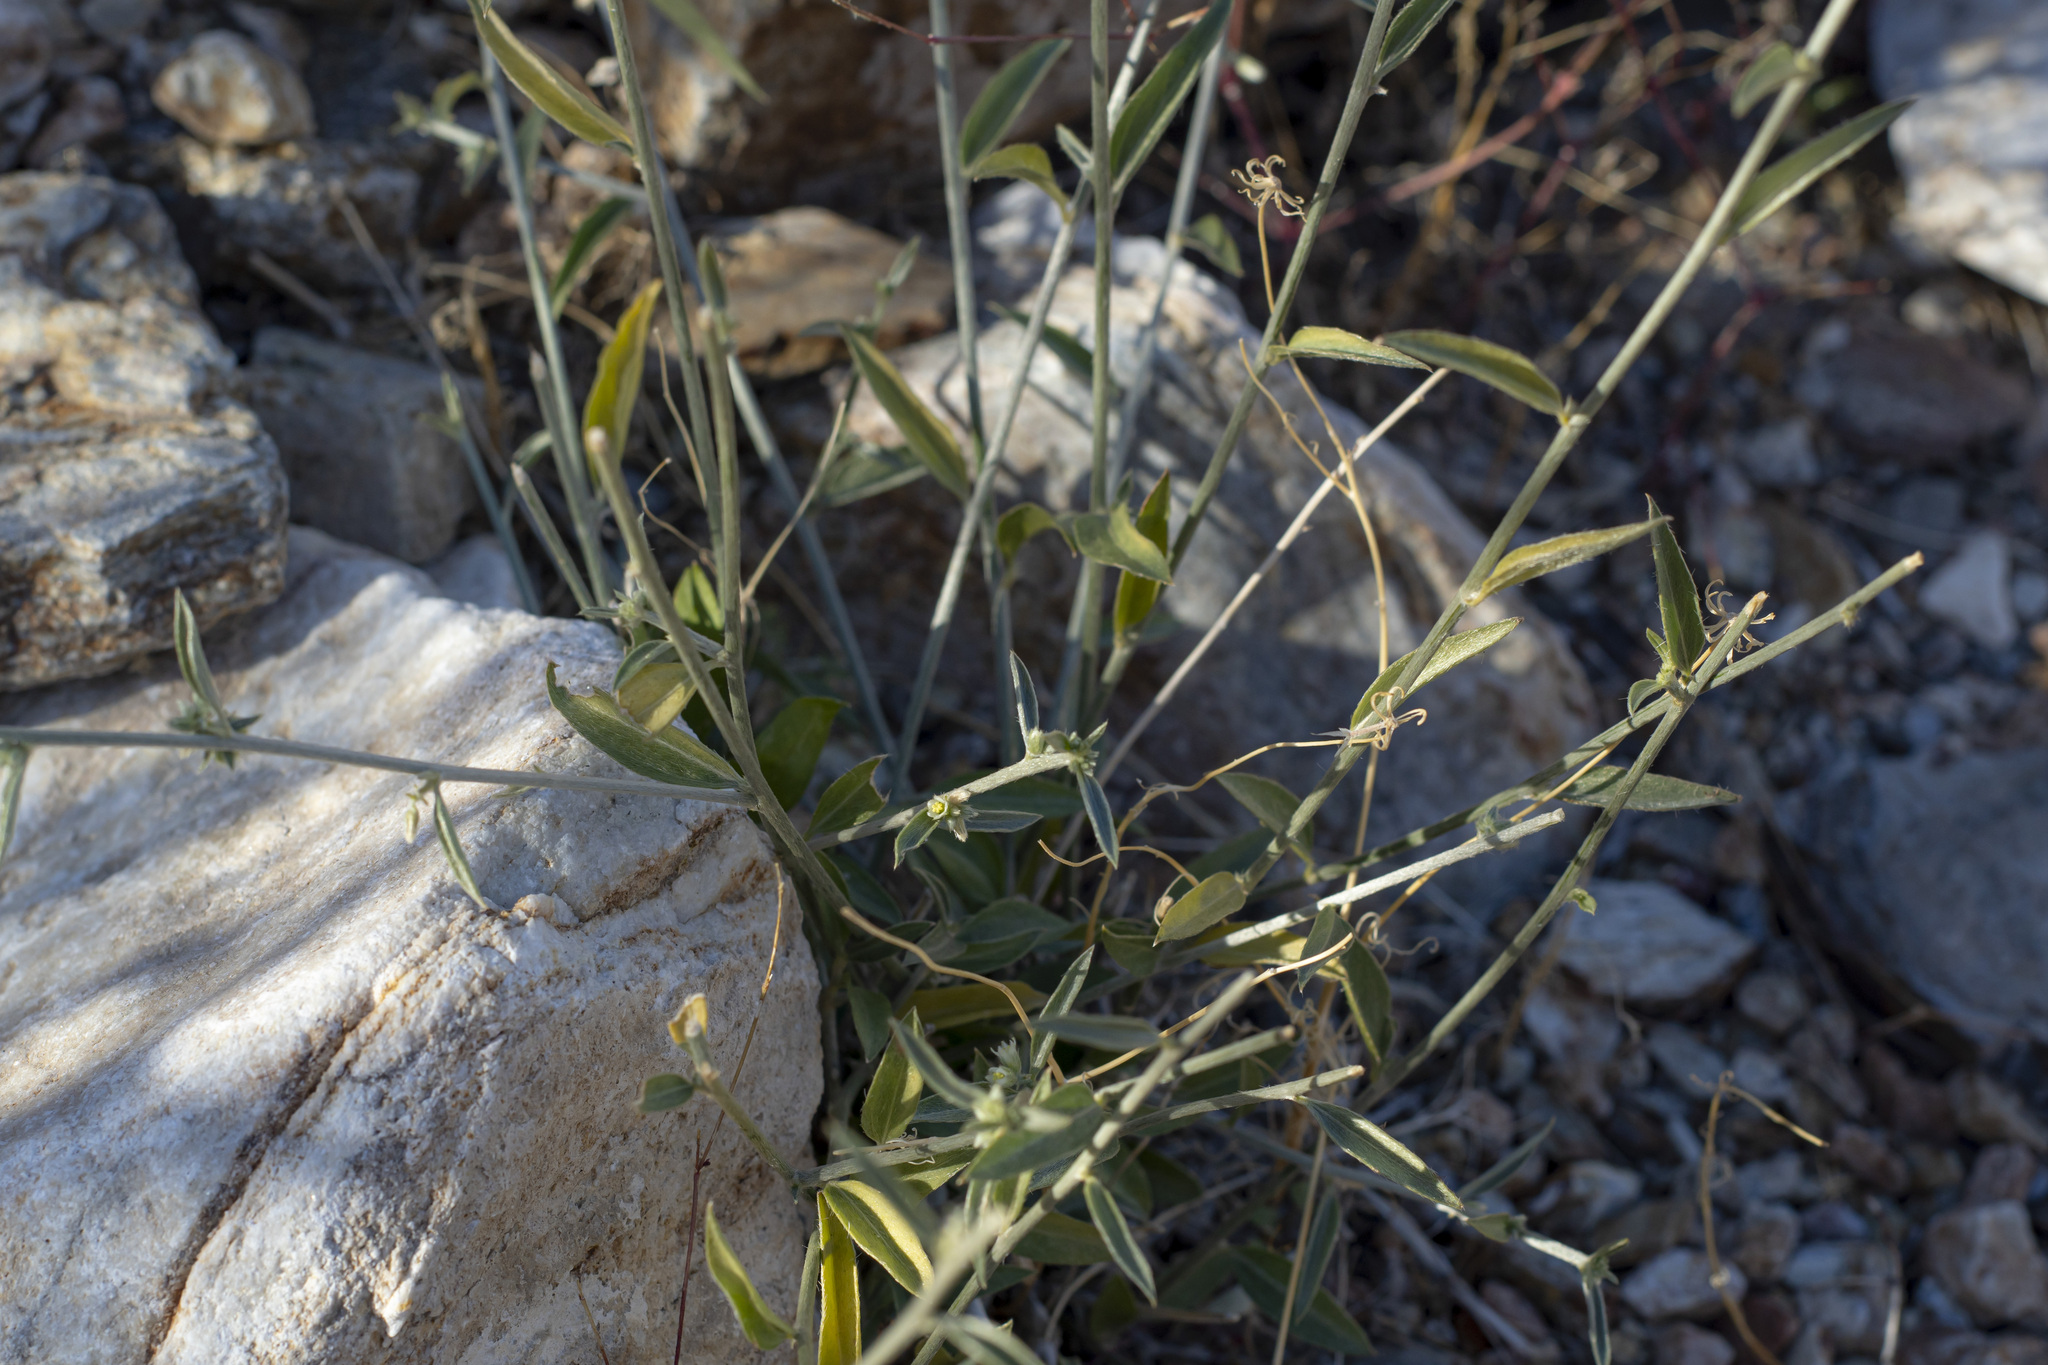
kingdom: Plantae
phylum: Tracheophyta
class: Magnoliopsida
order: Malpighiales
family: Euphorbiaceae
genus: Ditaxis
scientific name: Ditaxis lanceolata
